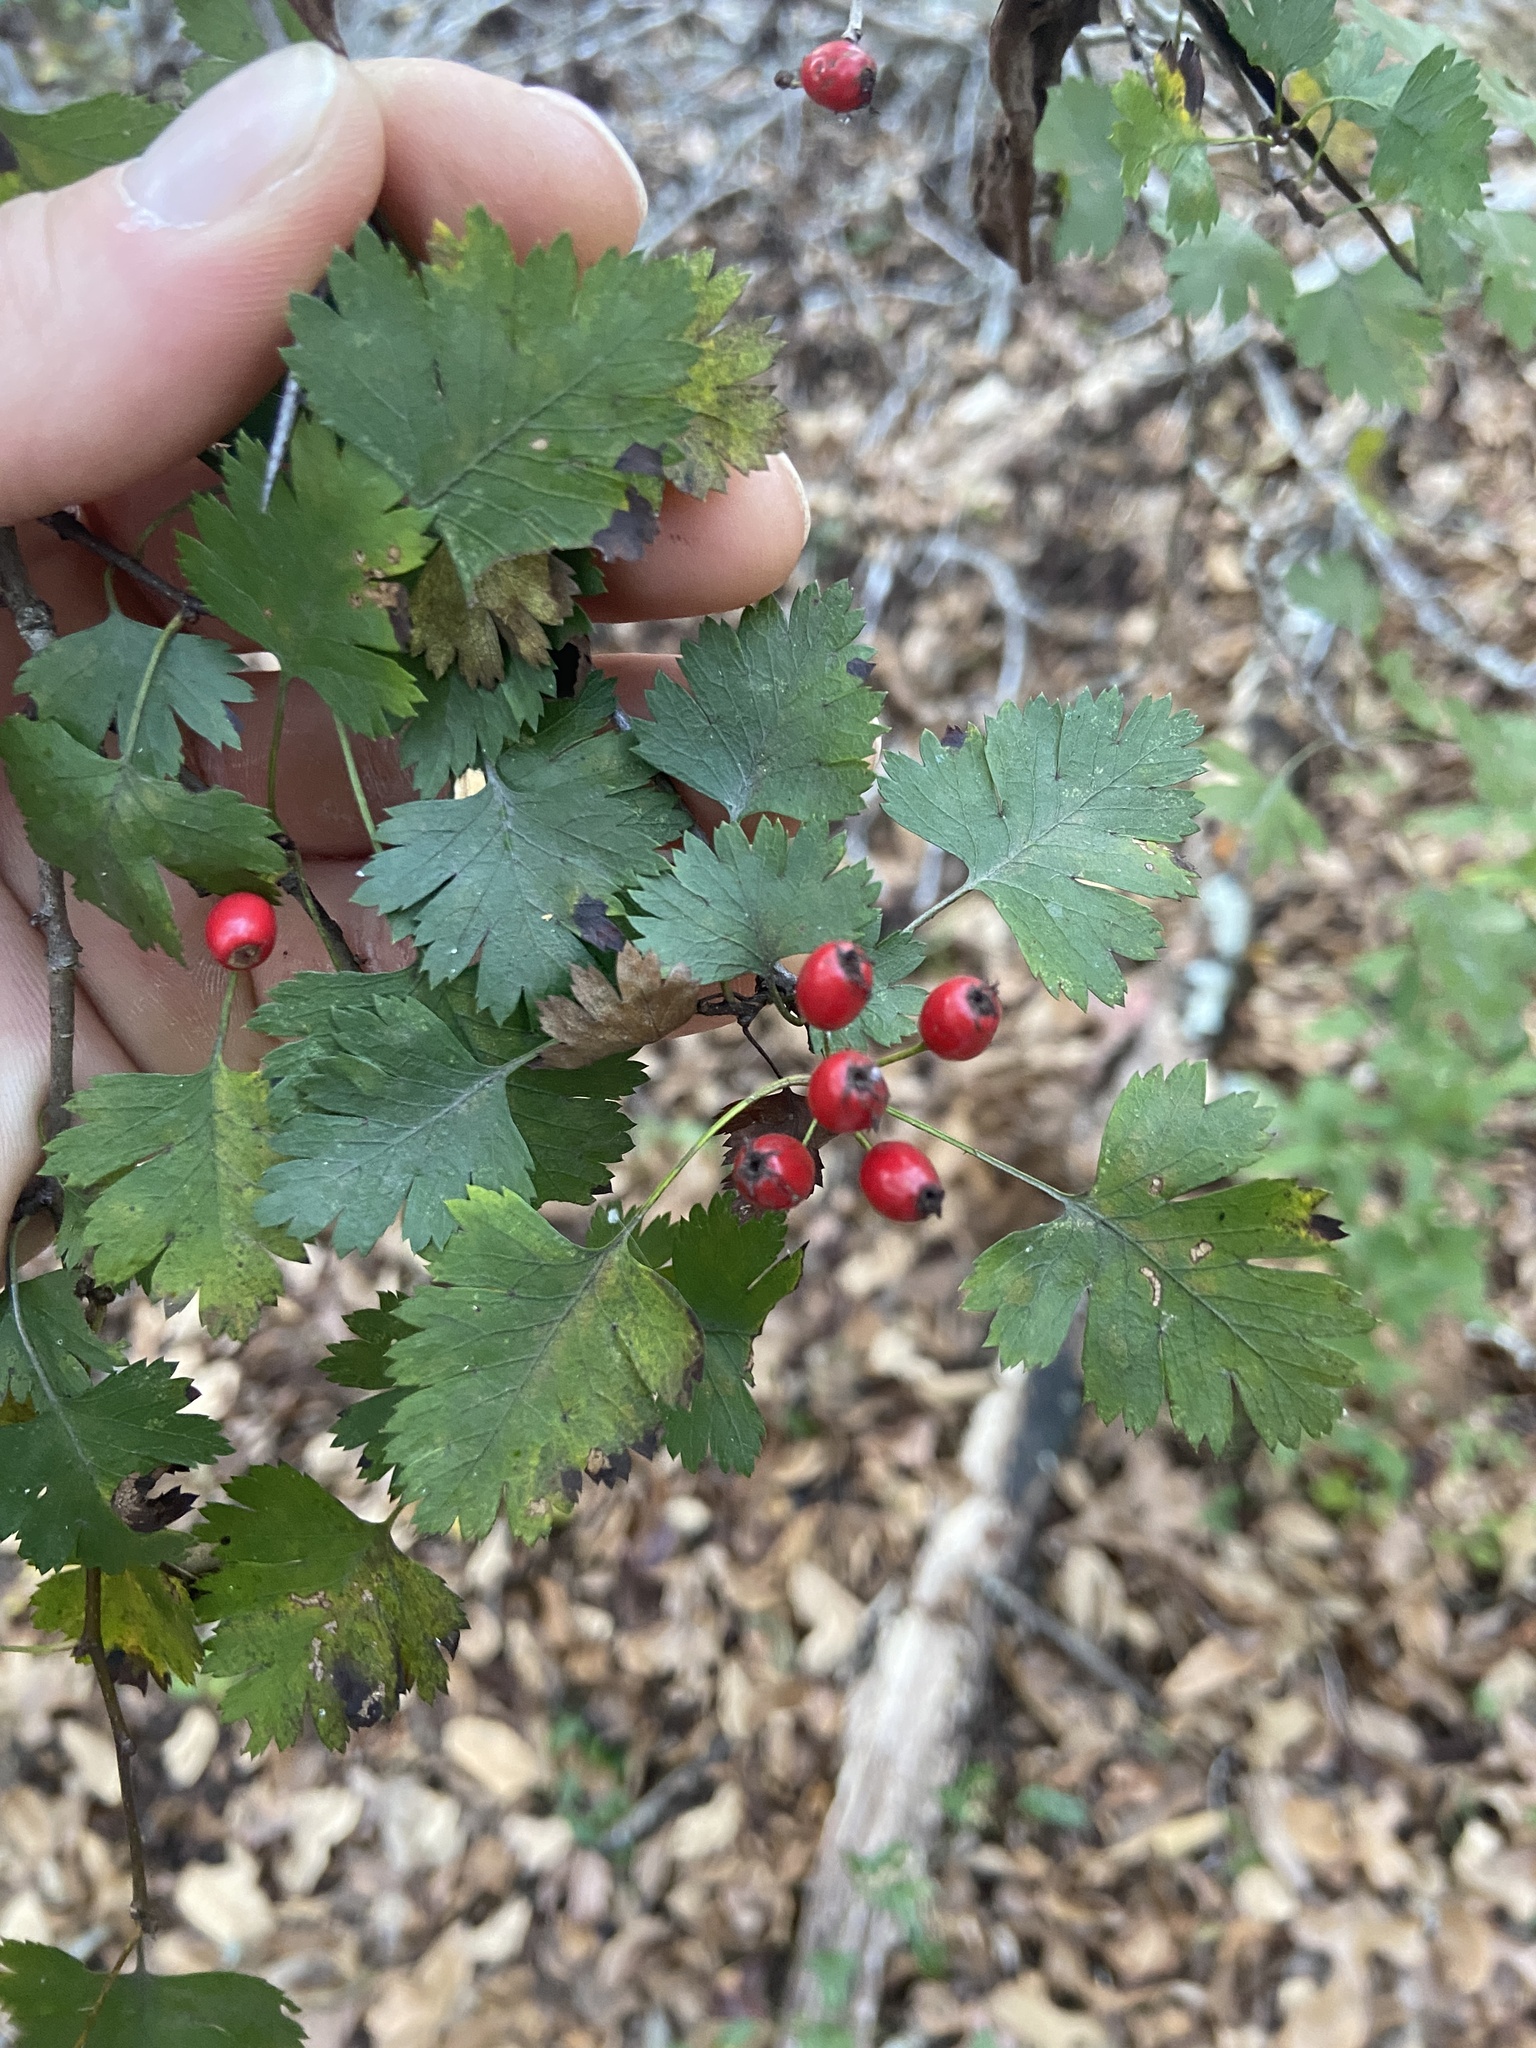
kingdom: Plantae
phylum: Tracheophyta
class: Magnoliopsida
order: Rosales
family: Rosaceae
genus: Crataegus
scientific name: Crataegus marshallii
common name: Parsley-hawthorn
